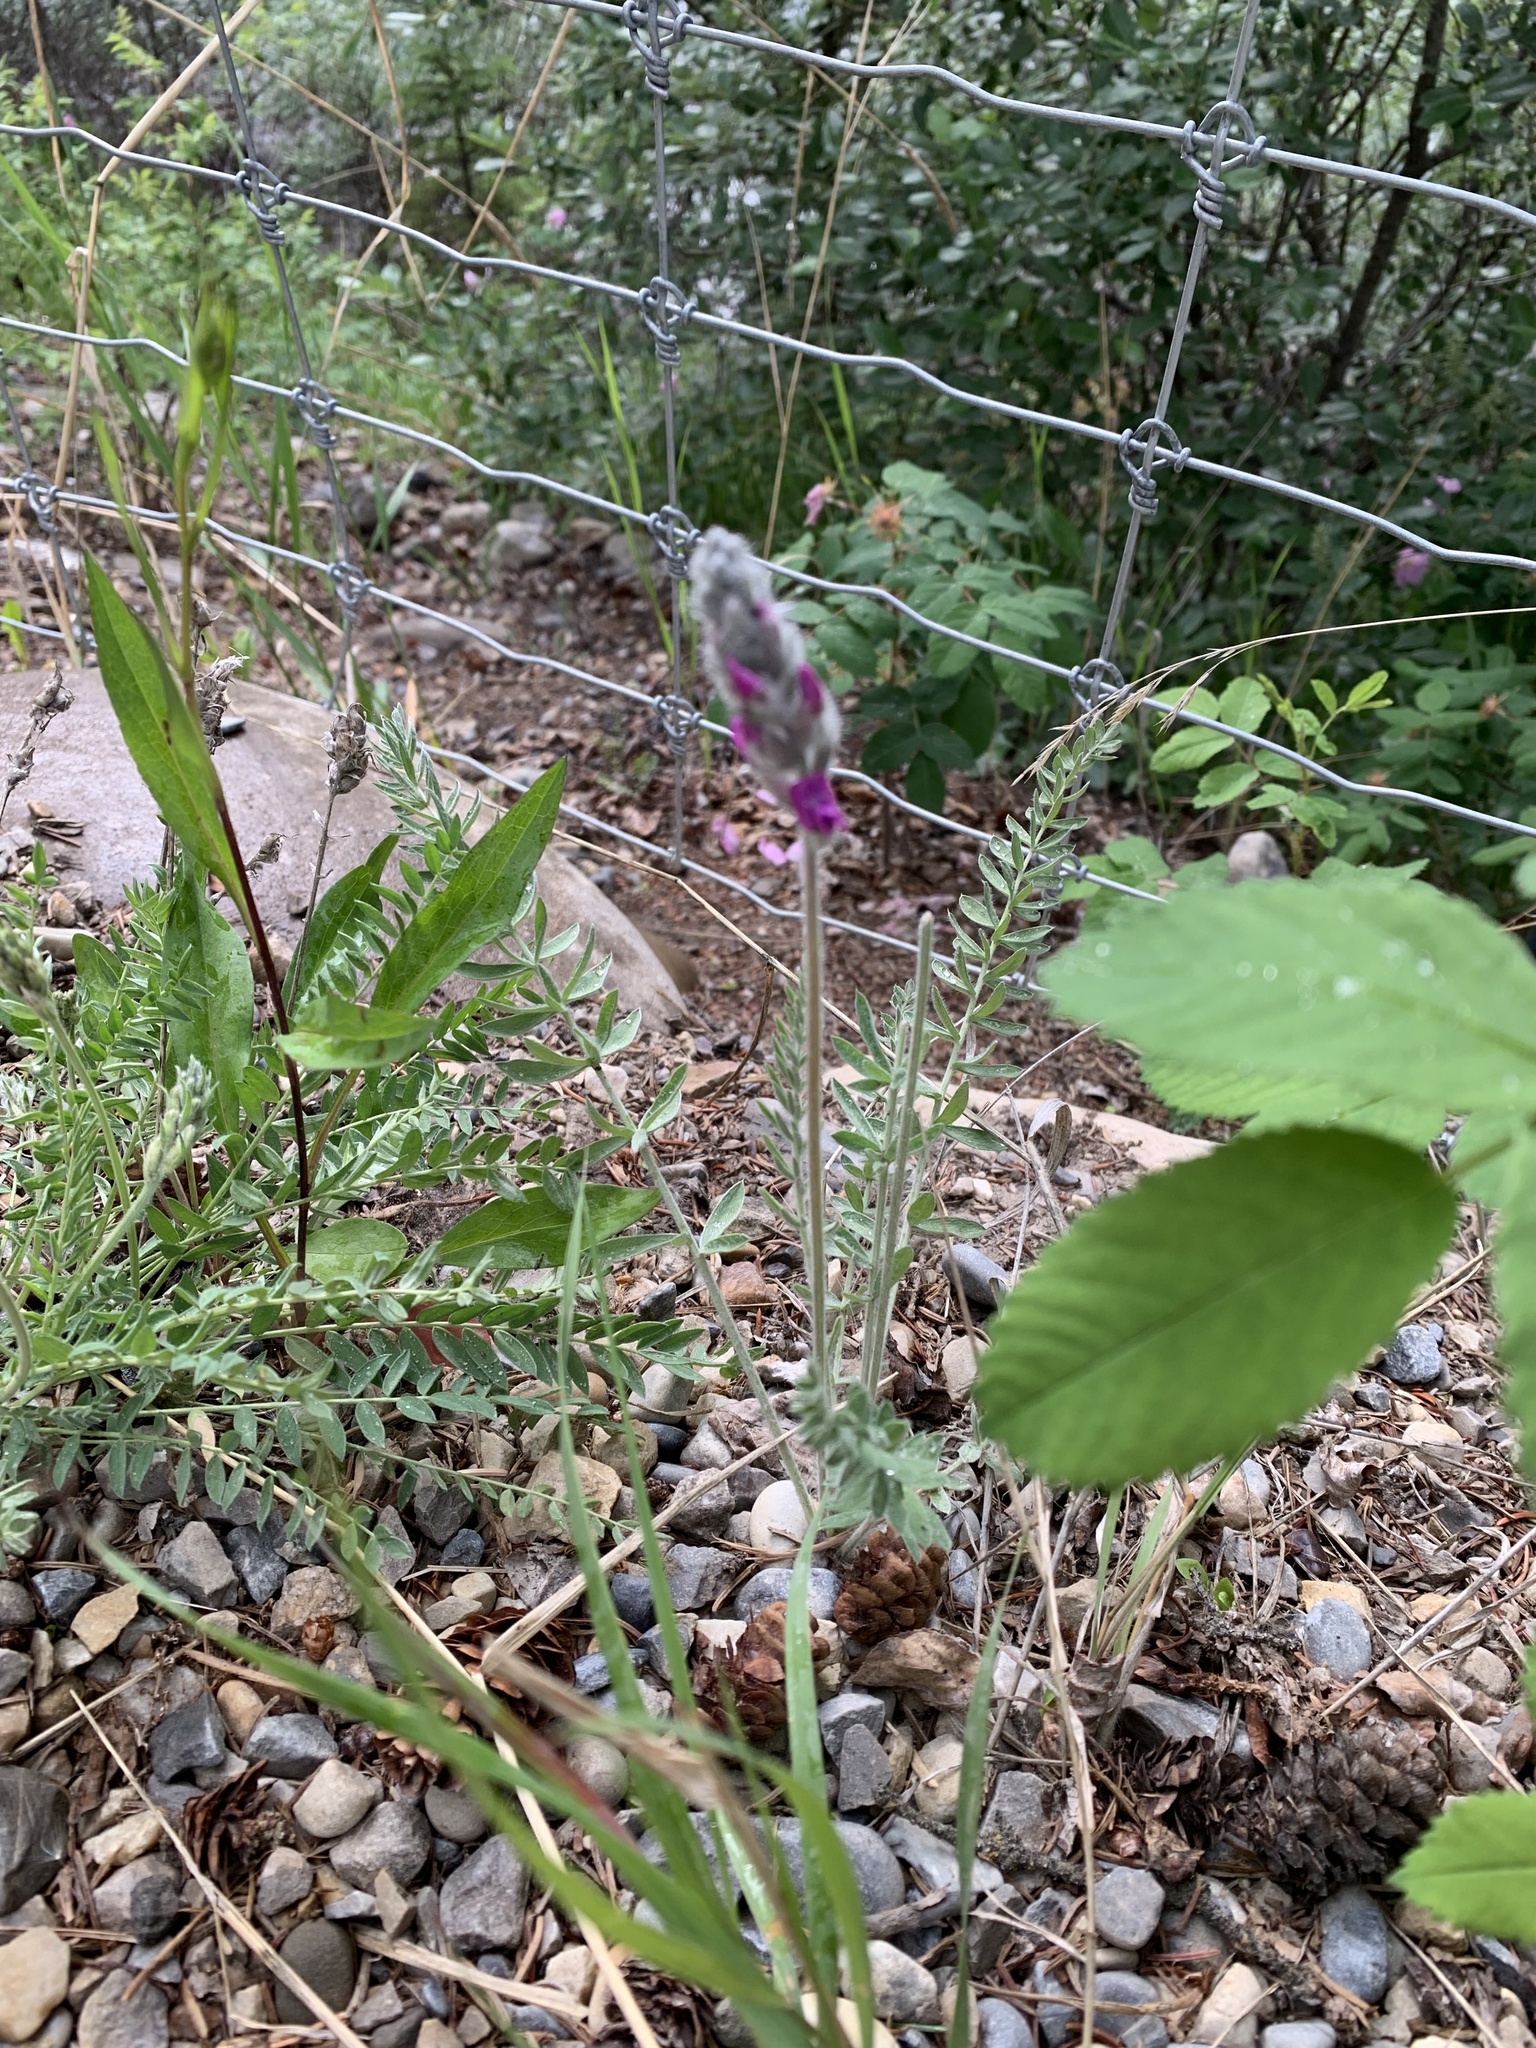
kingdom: Plantae
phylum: Tracheophyta
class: Magnoliopsida
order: Fabales
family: Fabaceae
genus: Oxytropis
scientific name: Oxytropis splendens
